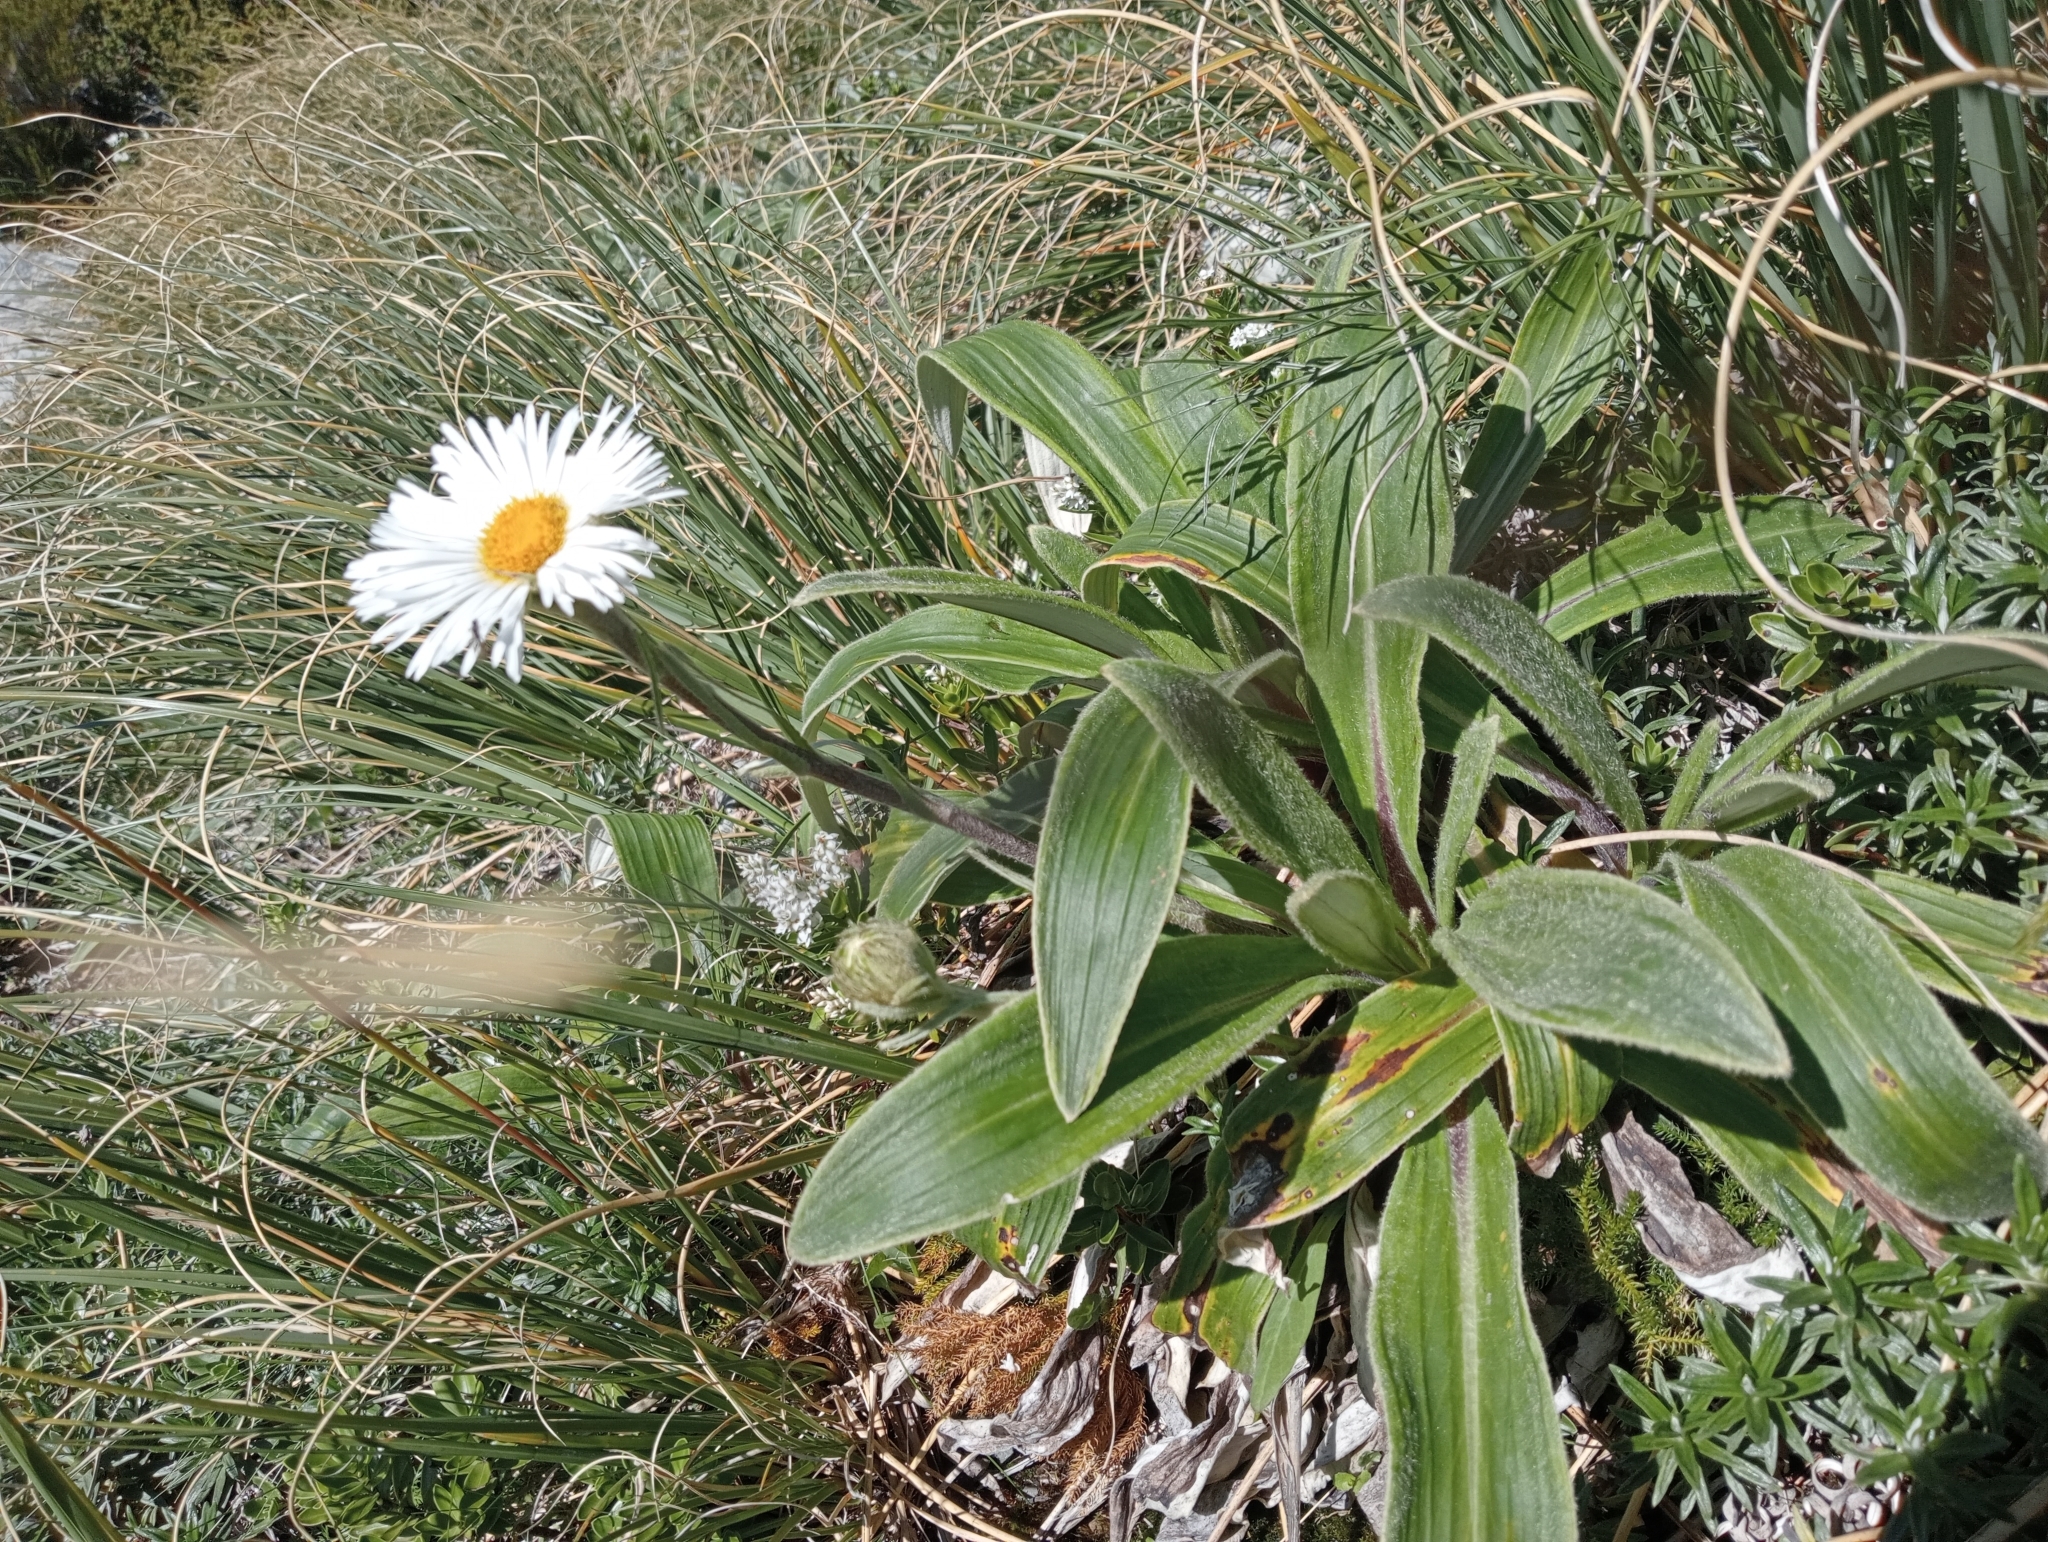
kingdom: Plantae
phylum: Tracheophyta
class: Magnoliopsida
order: Asterales
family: Asteraceae
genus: Celmisia
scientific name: Celmisia verbascifolia
